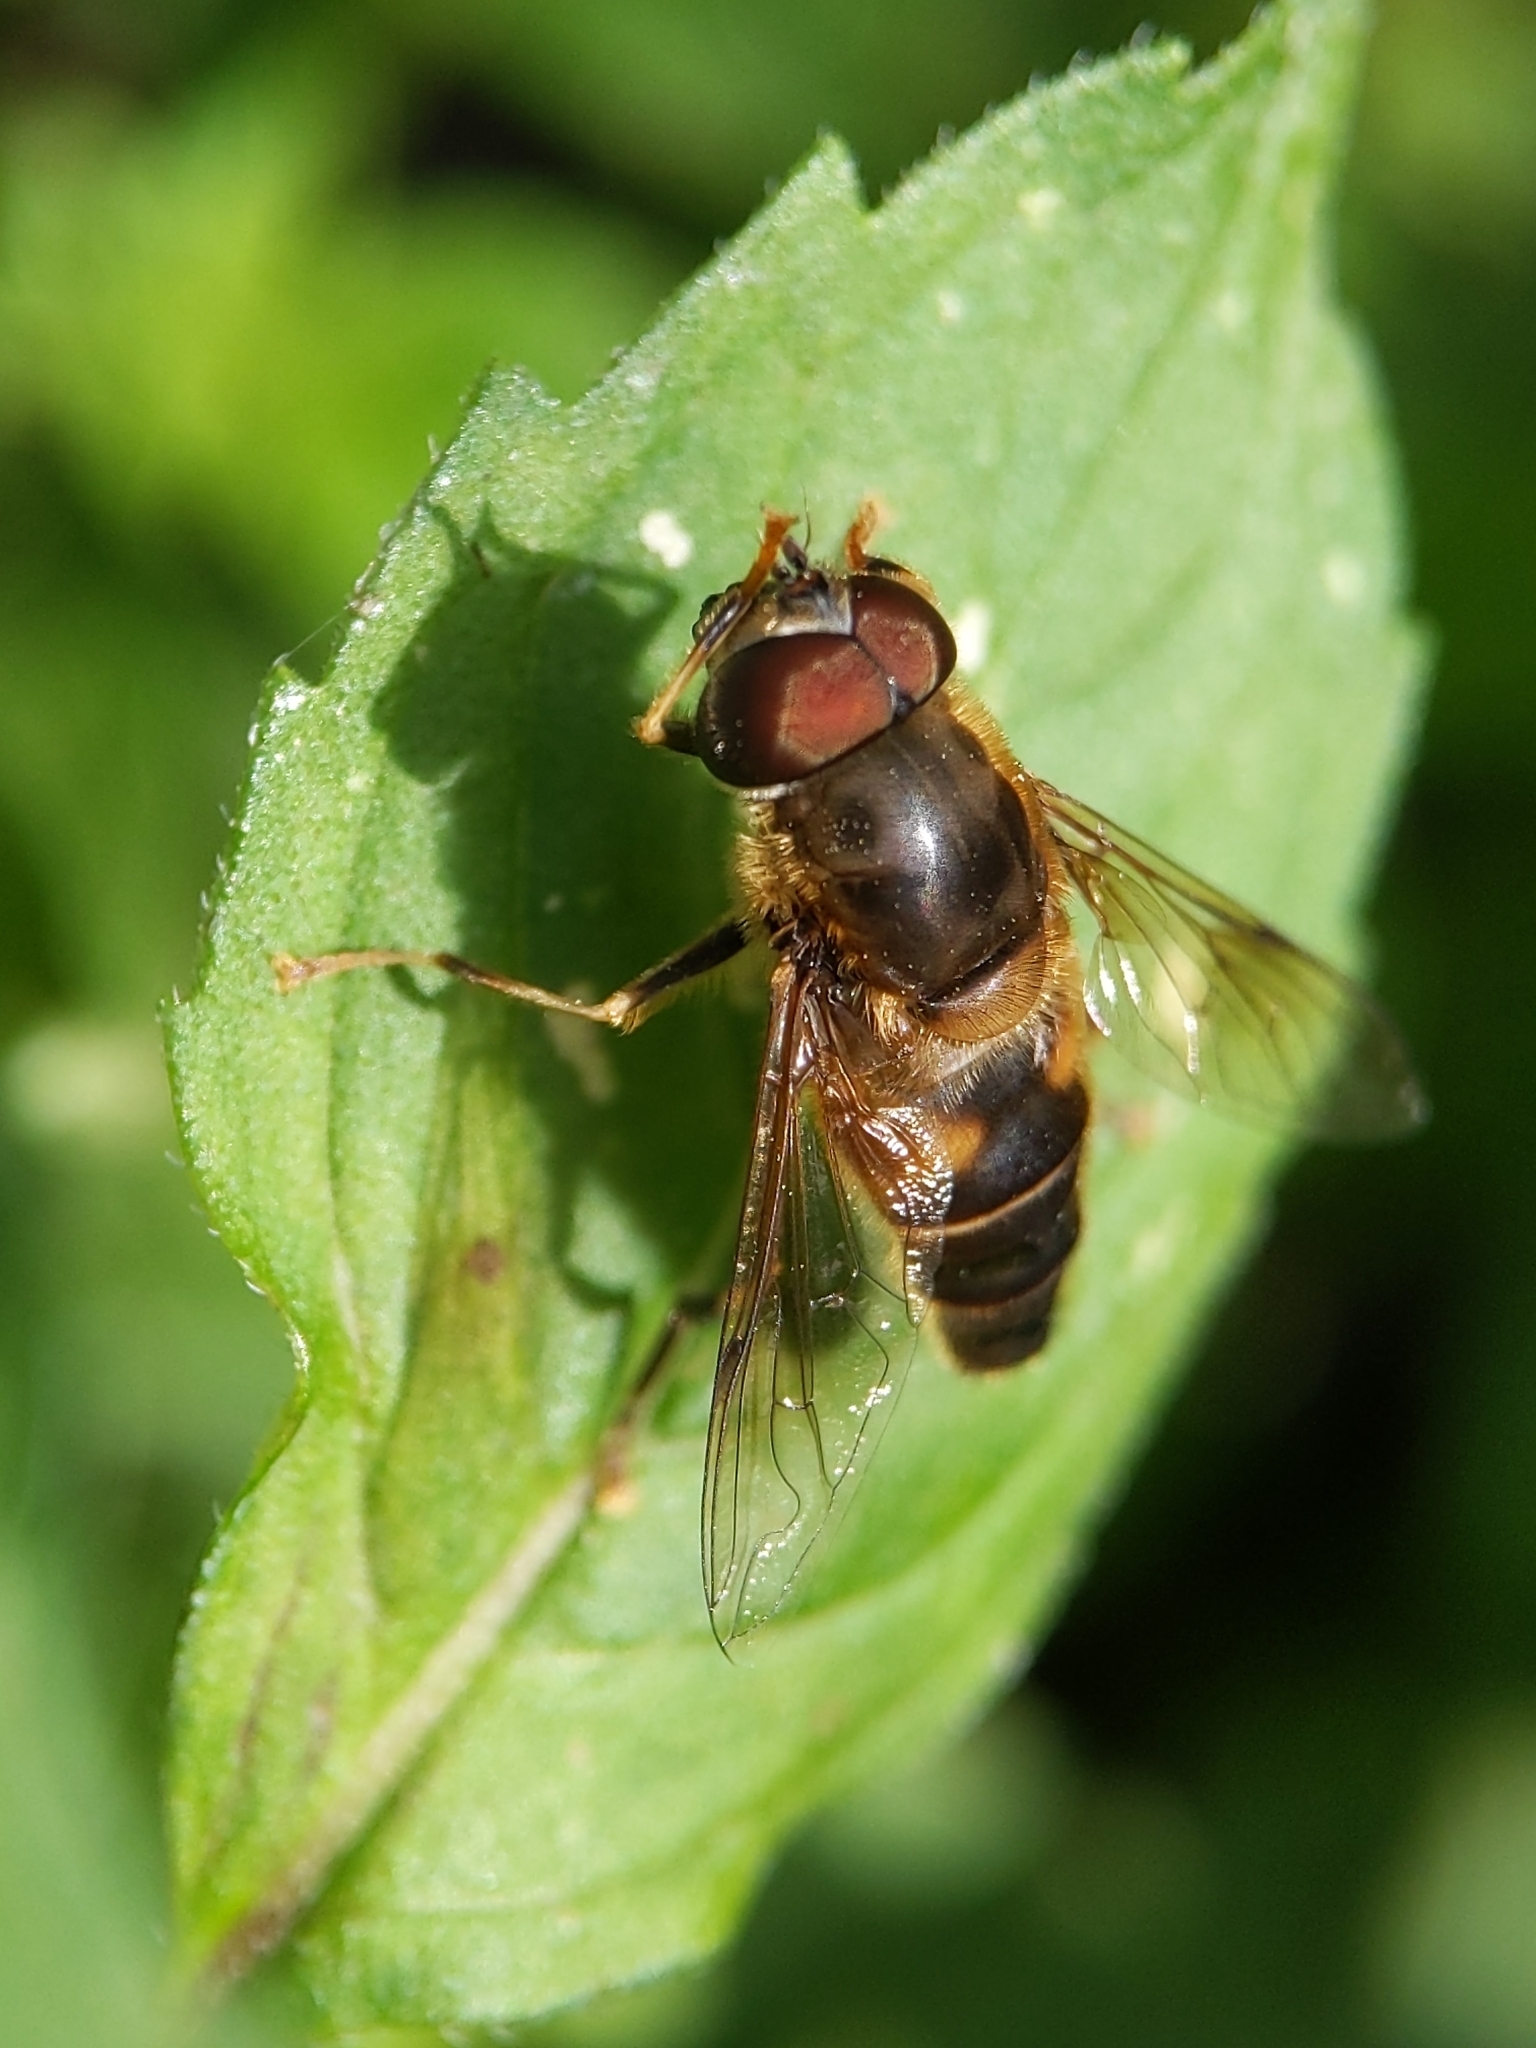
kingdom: Animalia
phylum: Arthropoda
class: Insecta
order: Diptera
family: Syrphidae
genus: Eristalis
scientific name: Eristalis pertinax
